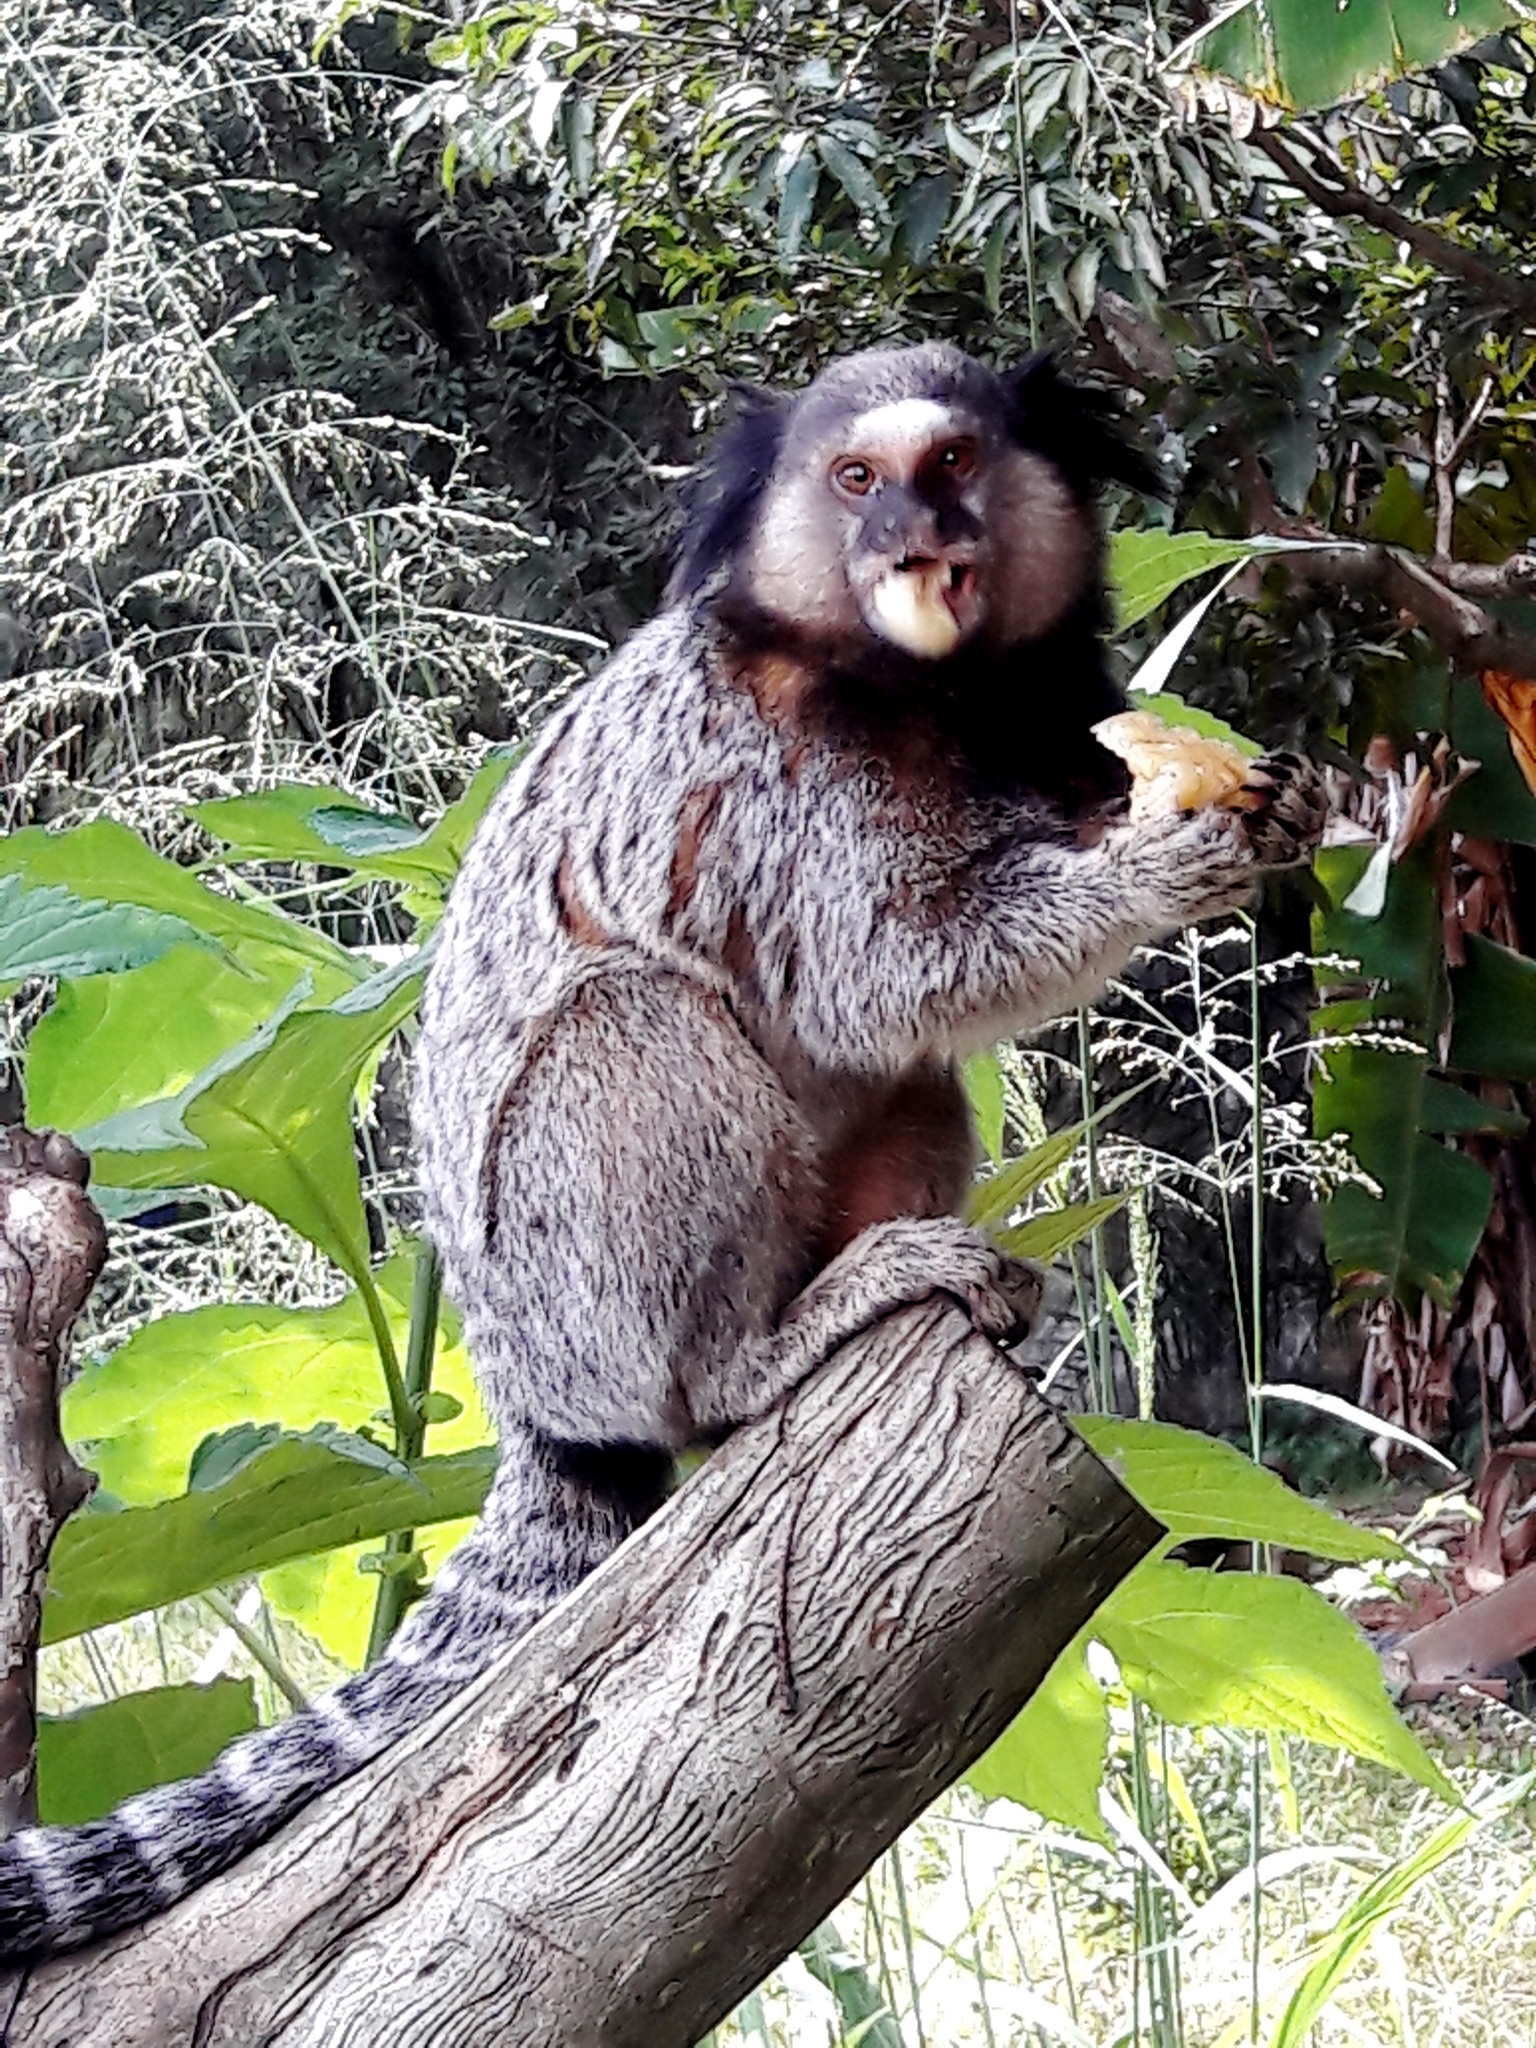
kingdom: Animalia
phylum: Chordata
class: Mammalia
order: Primates
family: Callitrichidae
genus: Callithrix
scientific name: Callithrix penicillata
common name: Black-tufted marmoset
